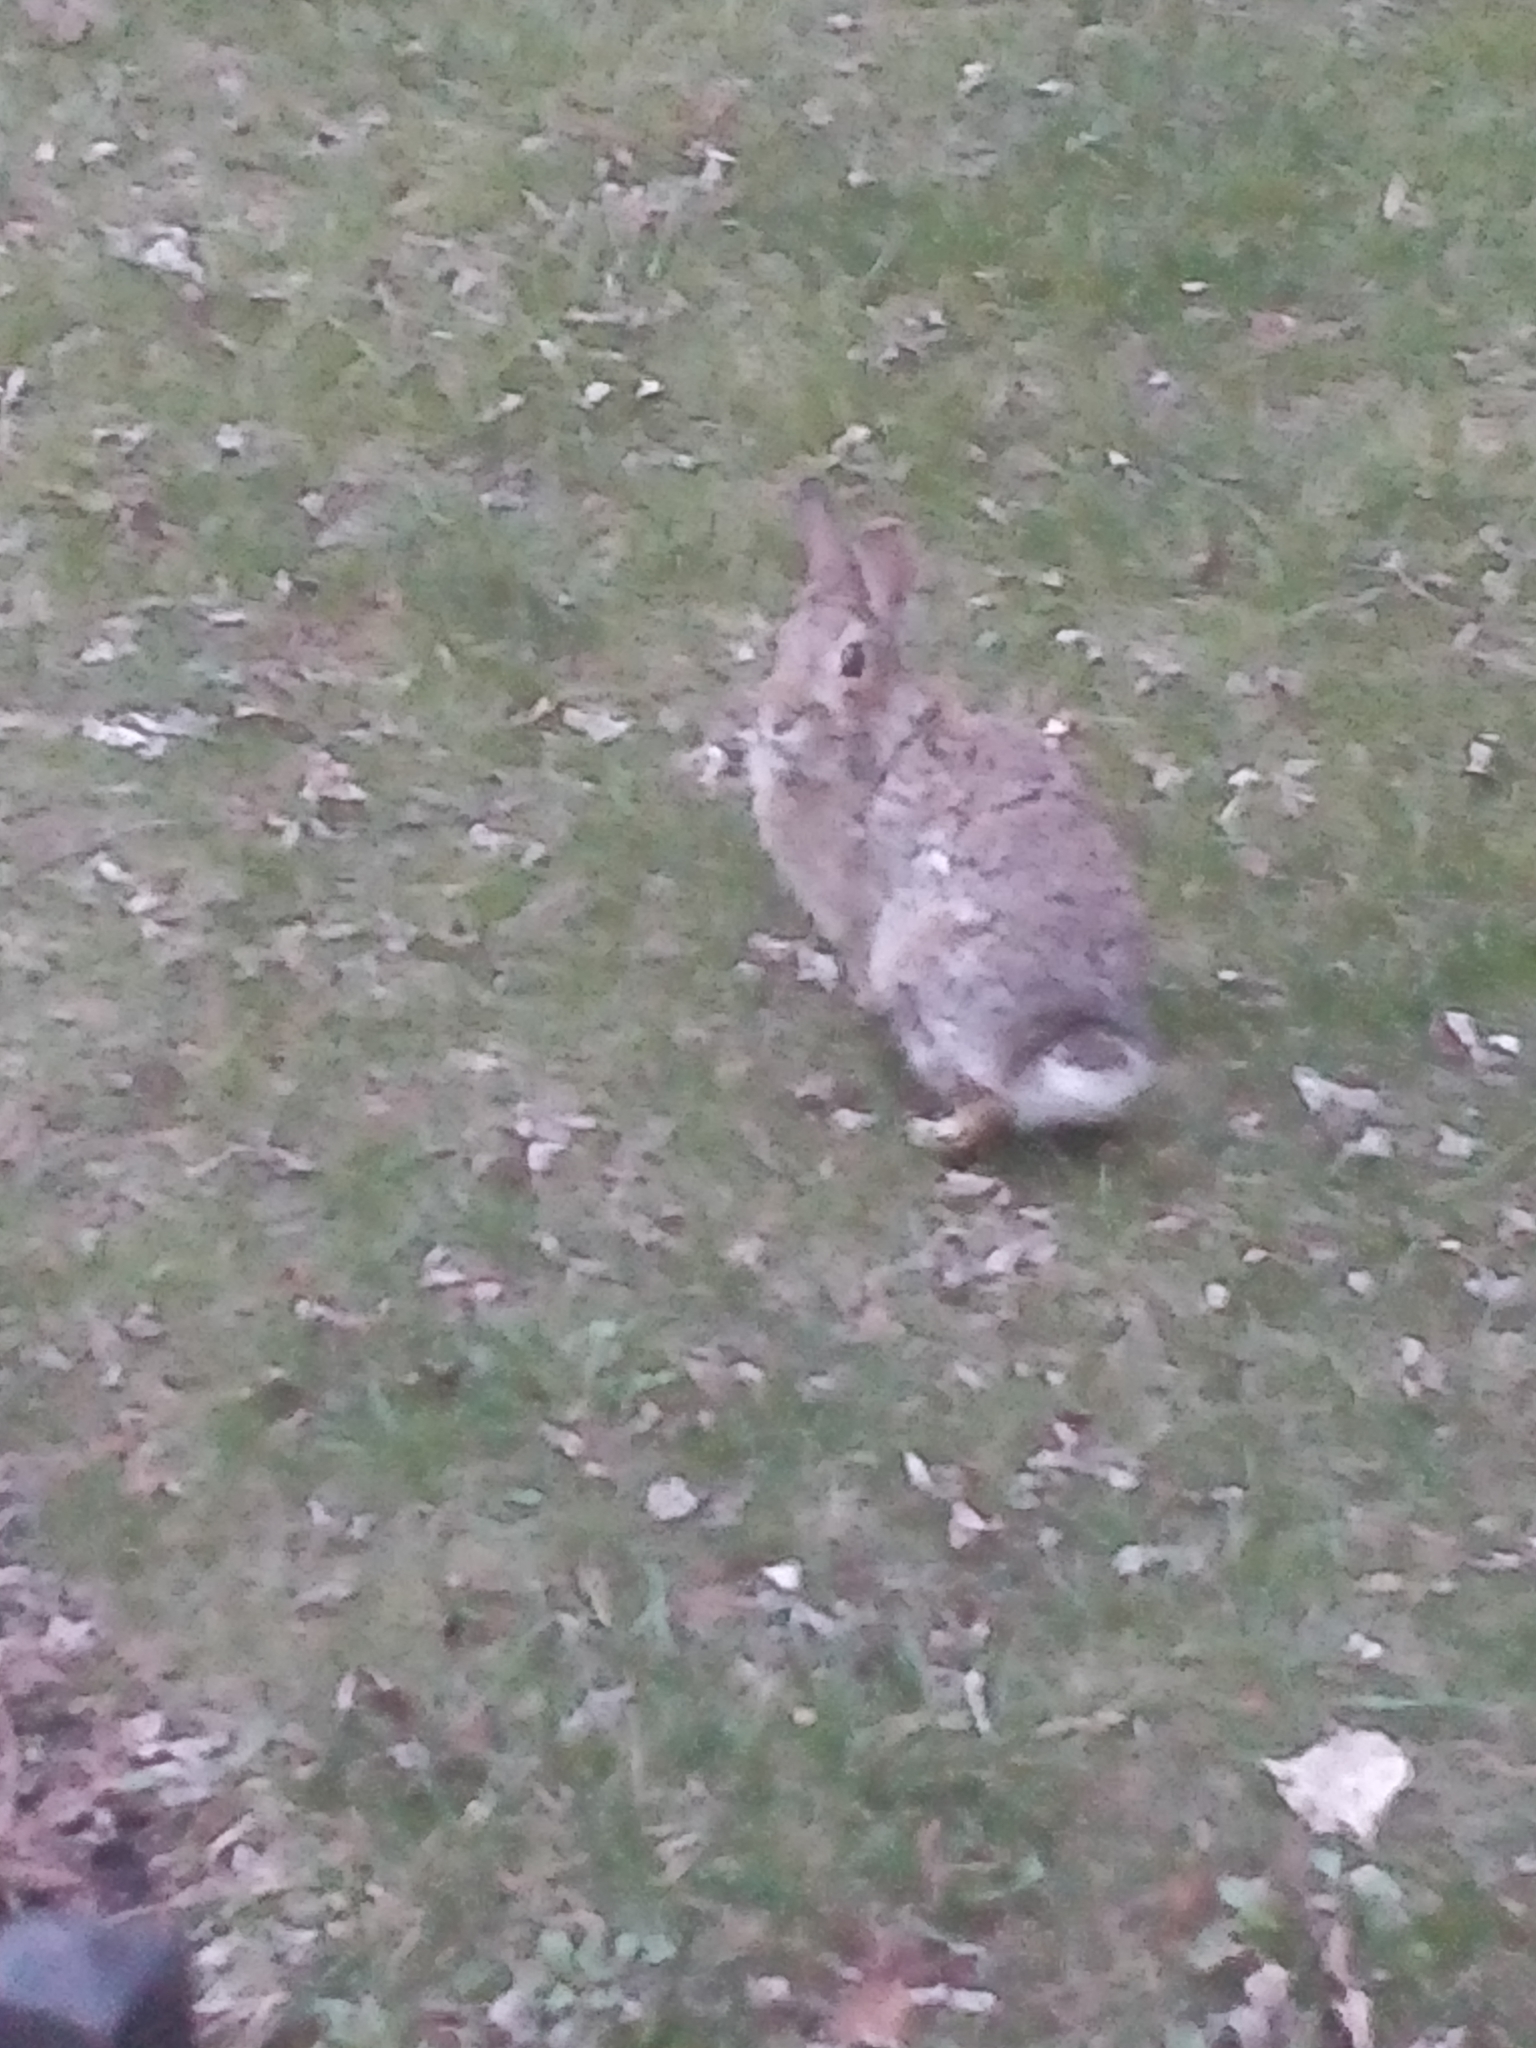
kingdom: Animalia
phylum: Chordata
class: Mammalia
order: Lagomorpha
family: Leporidae
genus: Sylvilagus
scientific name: Sylvilagus floridanus
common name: Eastern cottontail
